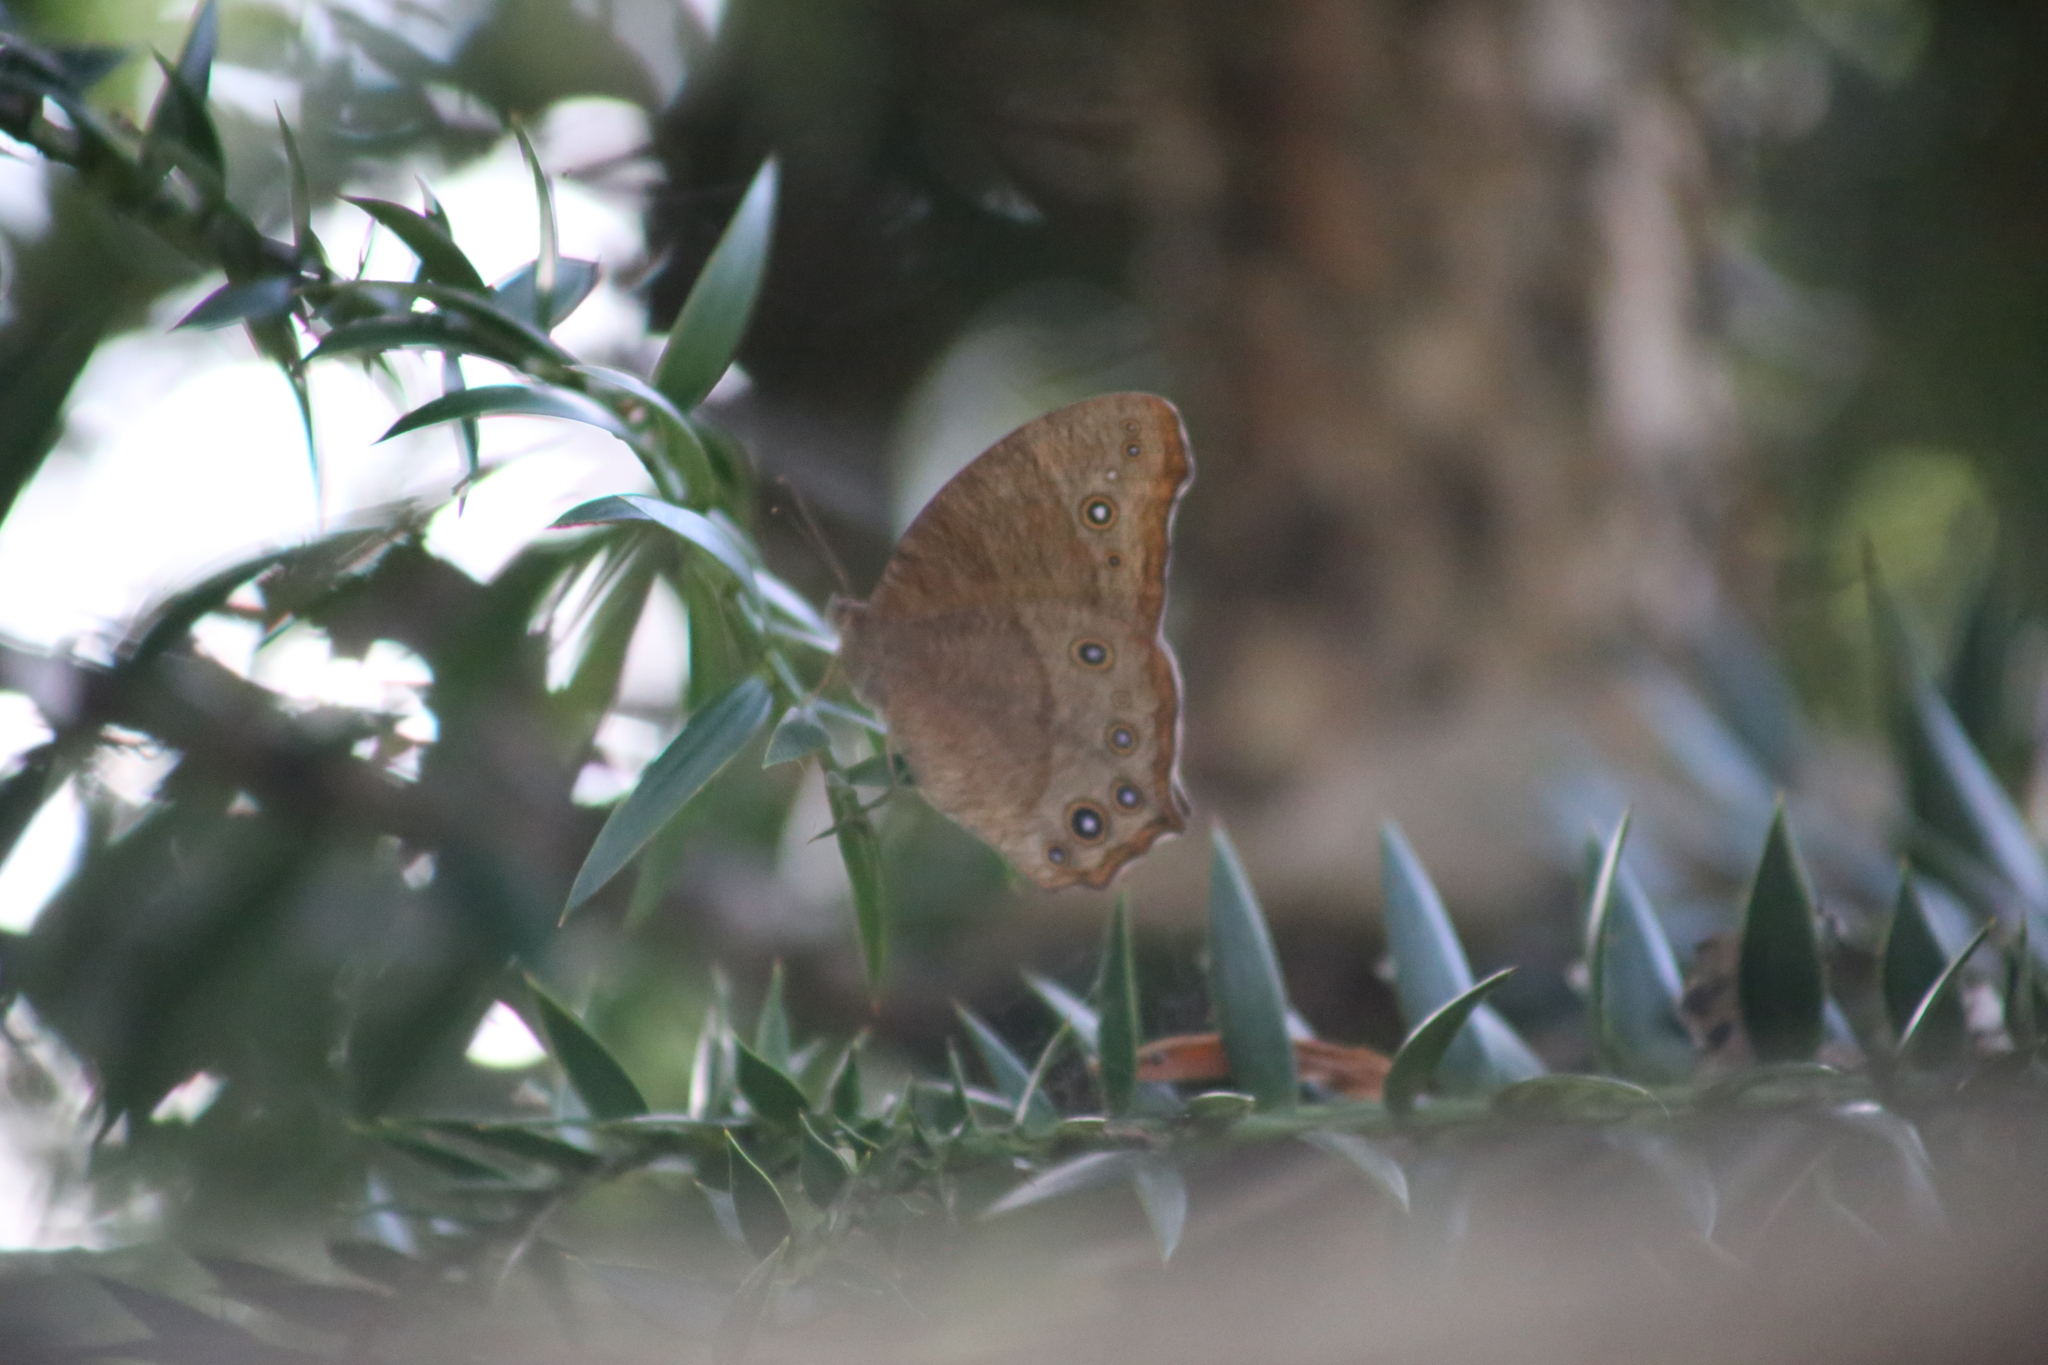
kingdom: Animalia
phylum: Arthropoda
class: Insecta
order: Lepidoptera
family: Nymphalidae
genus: Melanitis
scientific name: Melanitis leda
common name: Twilight brown
